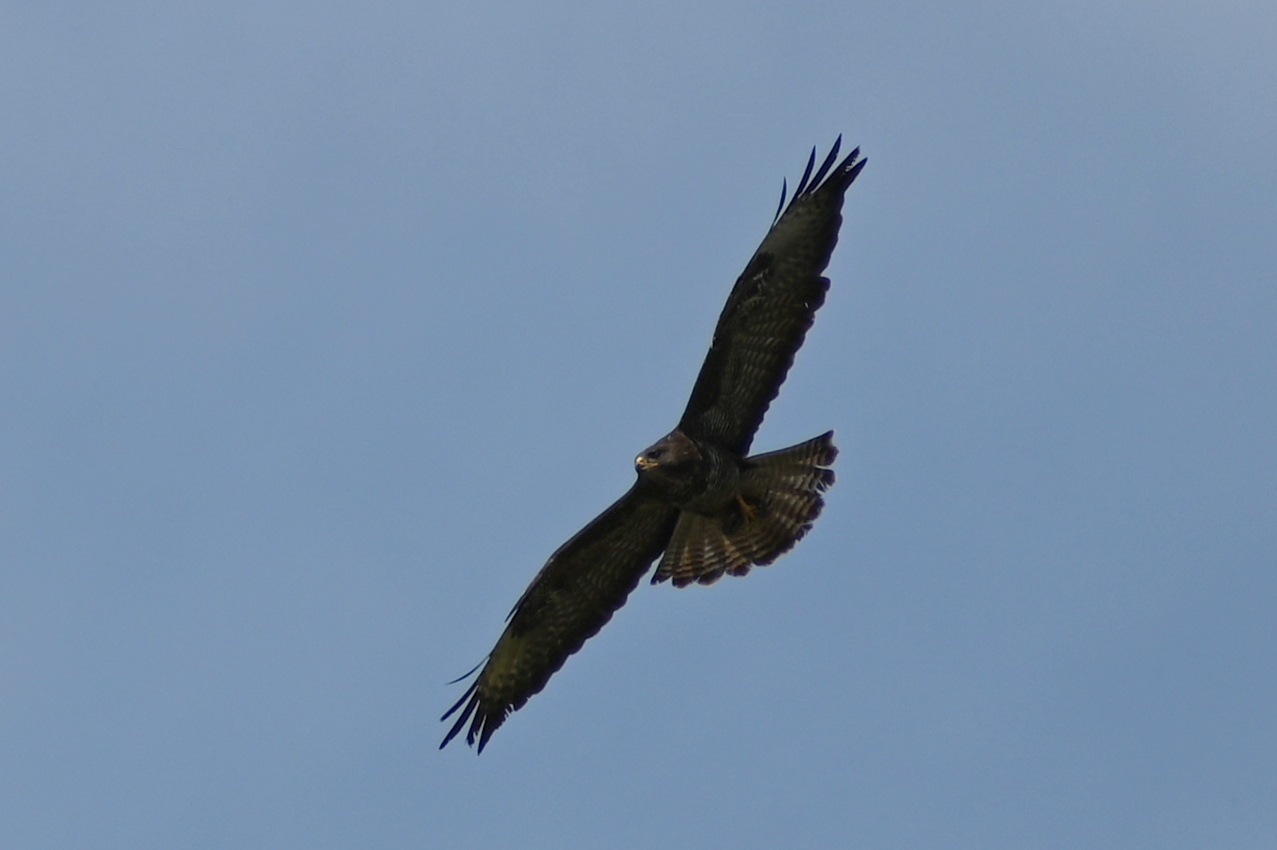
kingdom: Animalia
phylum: Chordata
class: Aves
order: Accipitriformes
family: Accipitridae
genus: Buteo
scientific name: Buteo buteo
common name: Common buzzard
